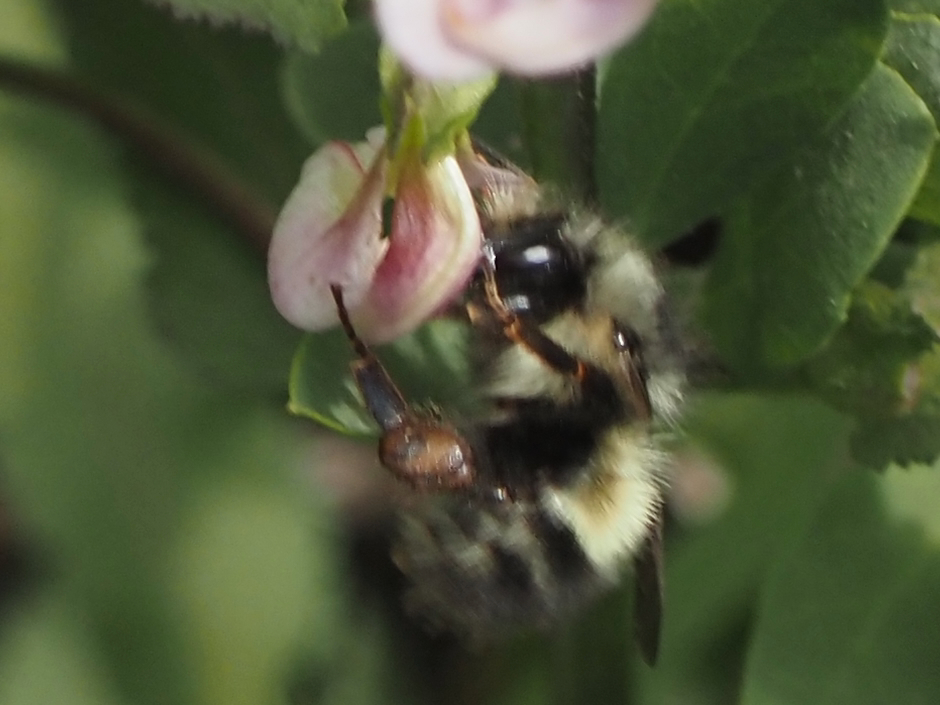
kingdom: Animalia
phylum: Arthropoda
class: Insecta
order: Hymenoptera
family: Apidae
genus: Bombus
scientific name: Bombus flavifrons
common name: Yellow head bumble bee
